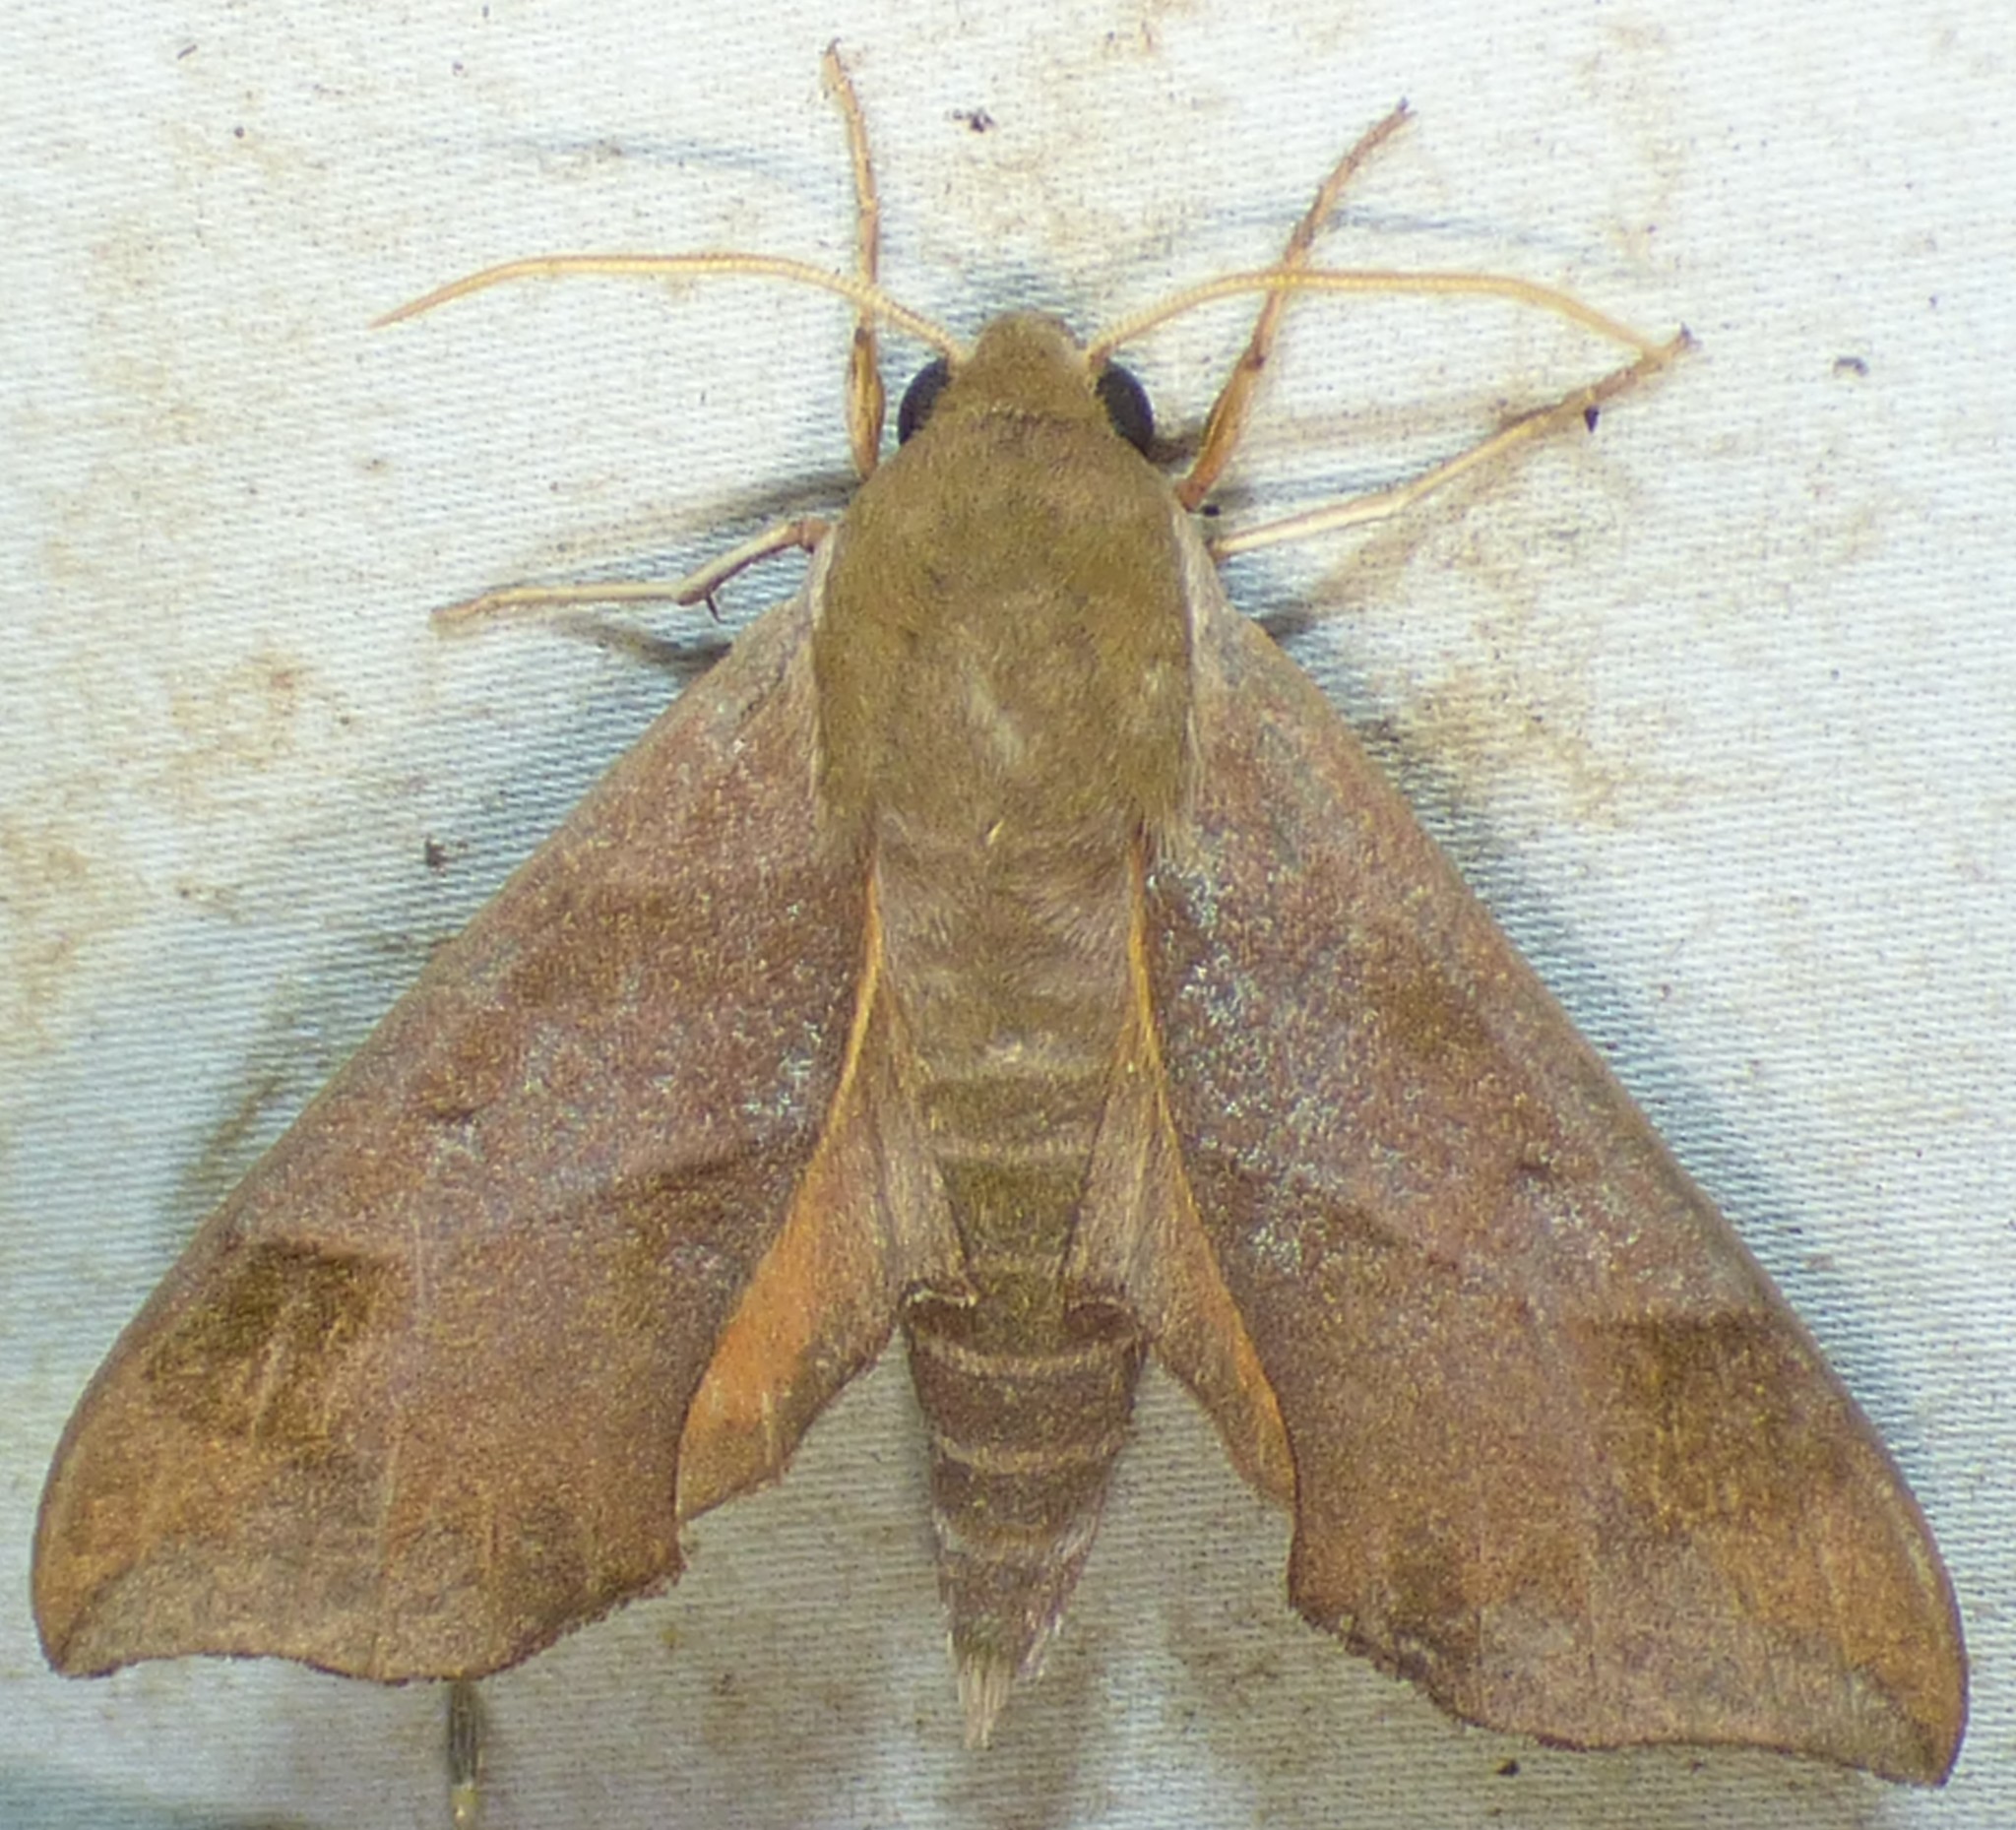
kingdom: Animalia
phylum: Arthropoda
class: Insecta
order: Lepidoptera
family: Sphingidae
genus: Darapsa
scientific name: Darapsa myron
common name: Hog sphinx
